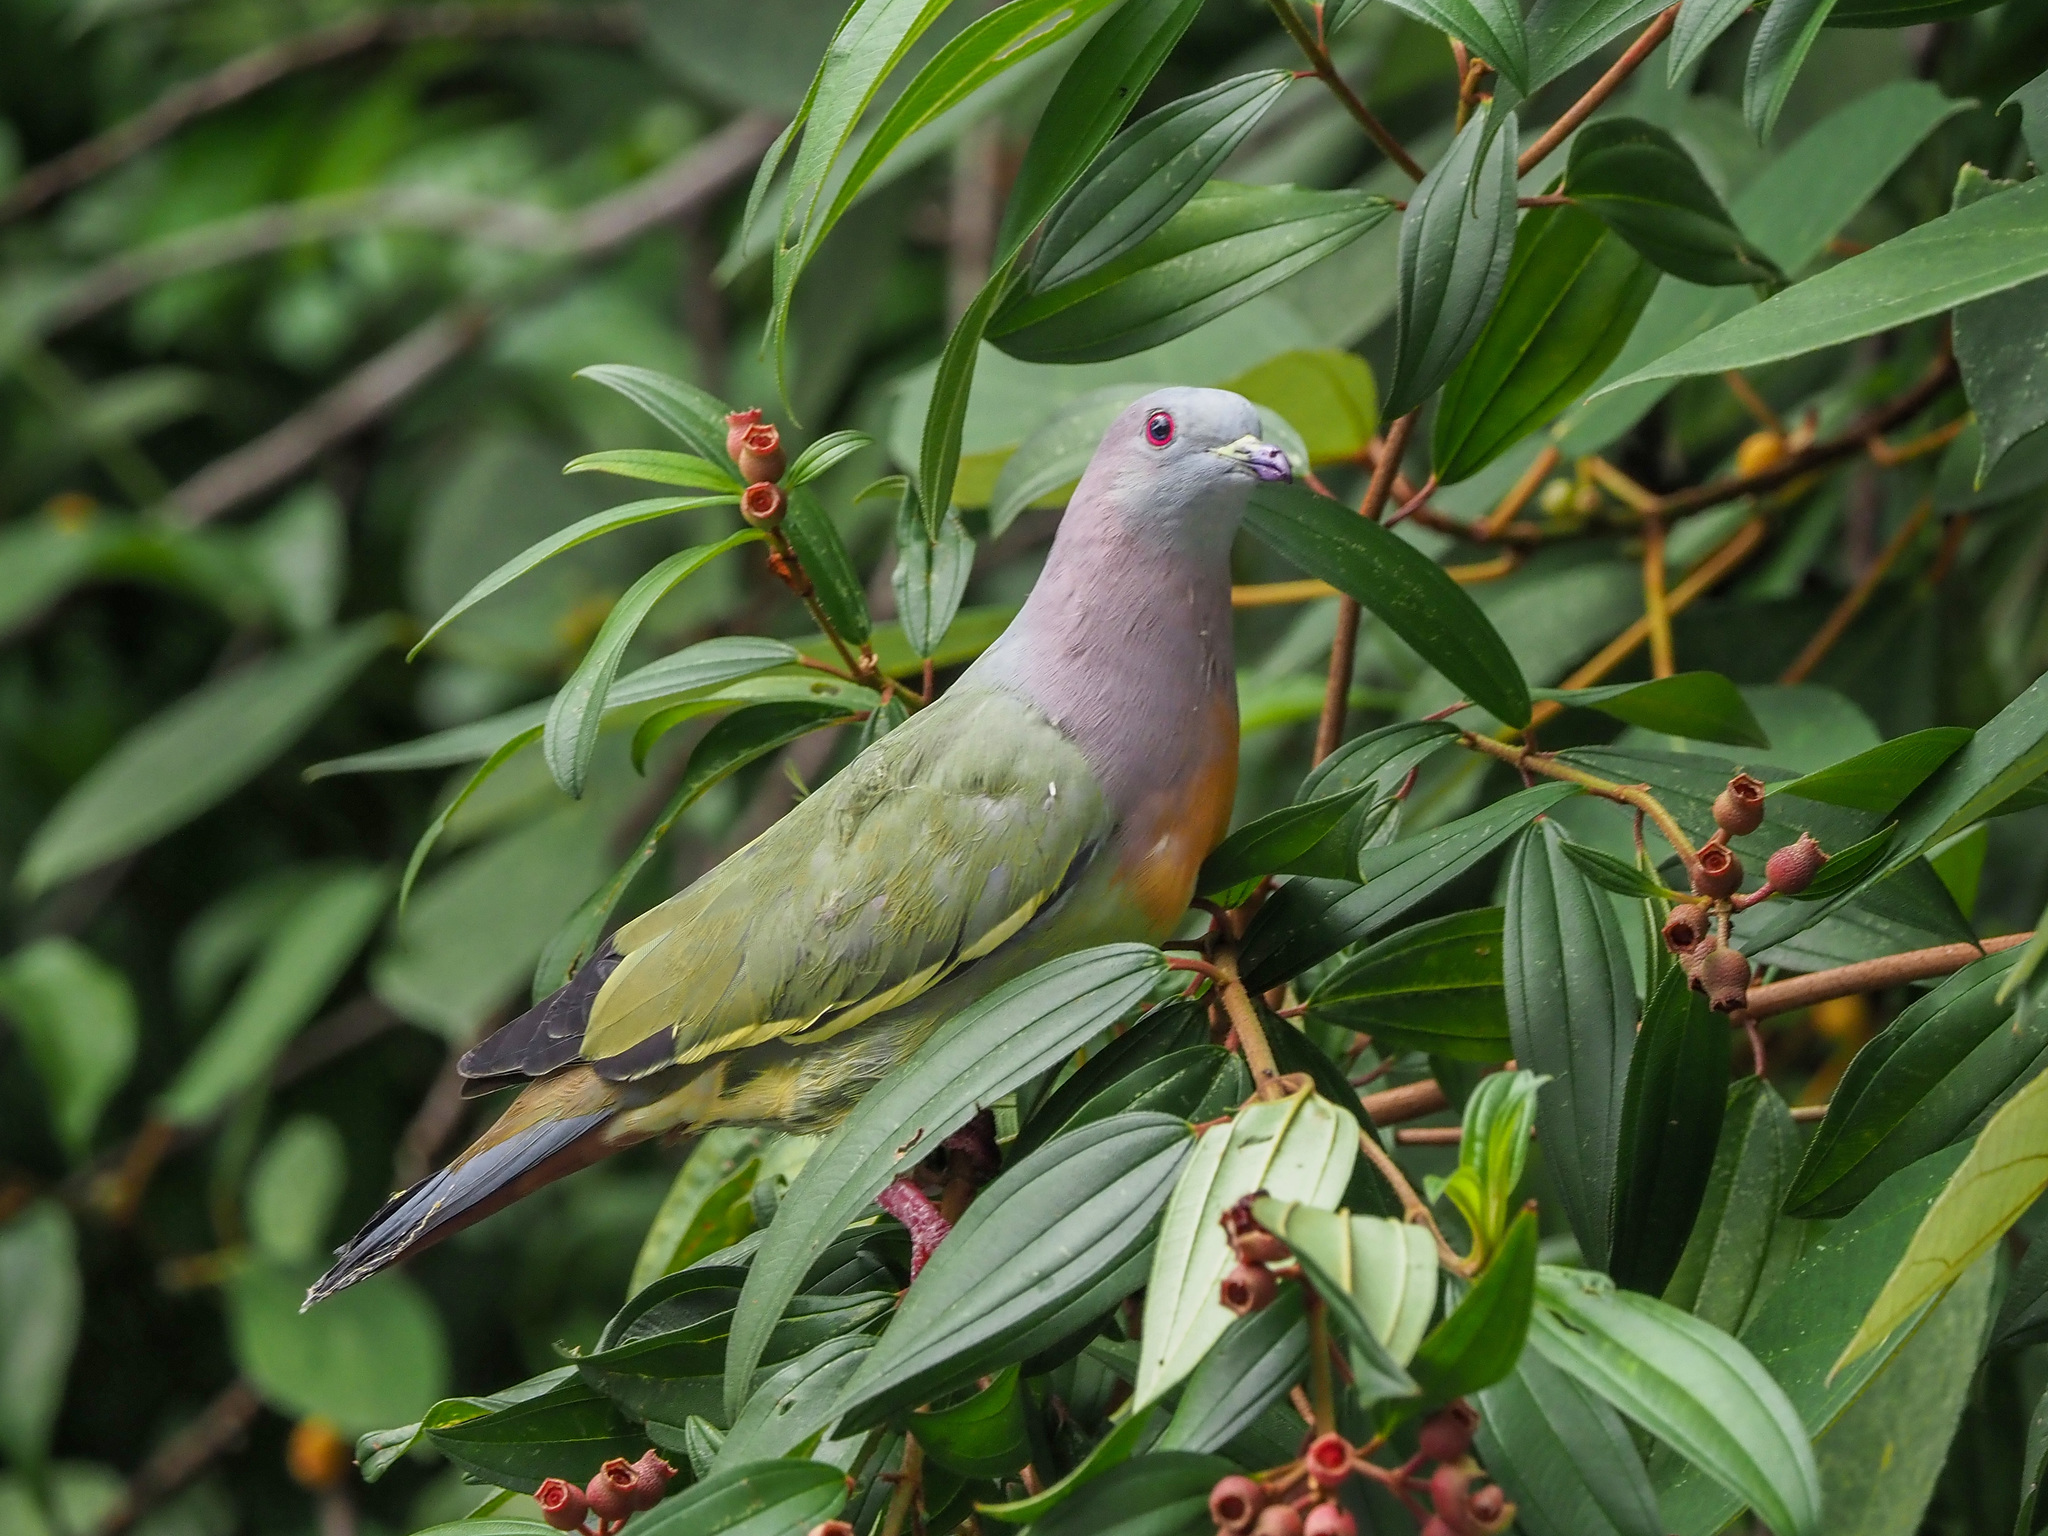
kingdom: Animalia
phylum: Chordata
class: Aves
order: Columbiformes
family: Columbidae
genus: Treron
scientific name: Treron vernans
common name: Pink-necked green pigeon
